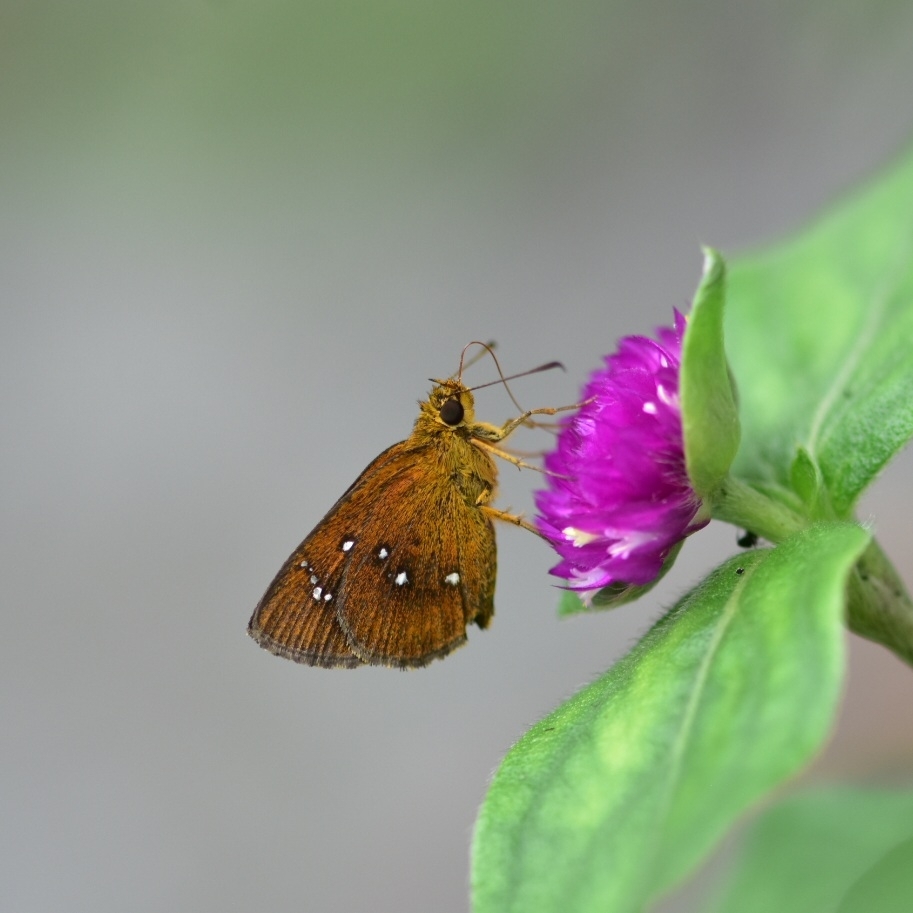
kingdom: Animalia
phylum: Arthropoda
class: Insecta
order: Lepidoptera
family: Hesperiidae
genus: Iambrix
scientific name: Iambrix salsala
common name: Chestnut bob
